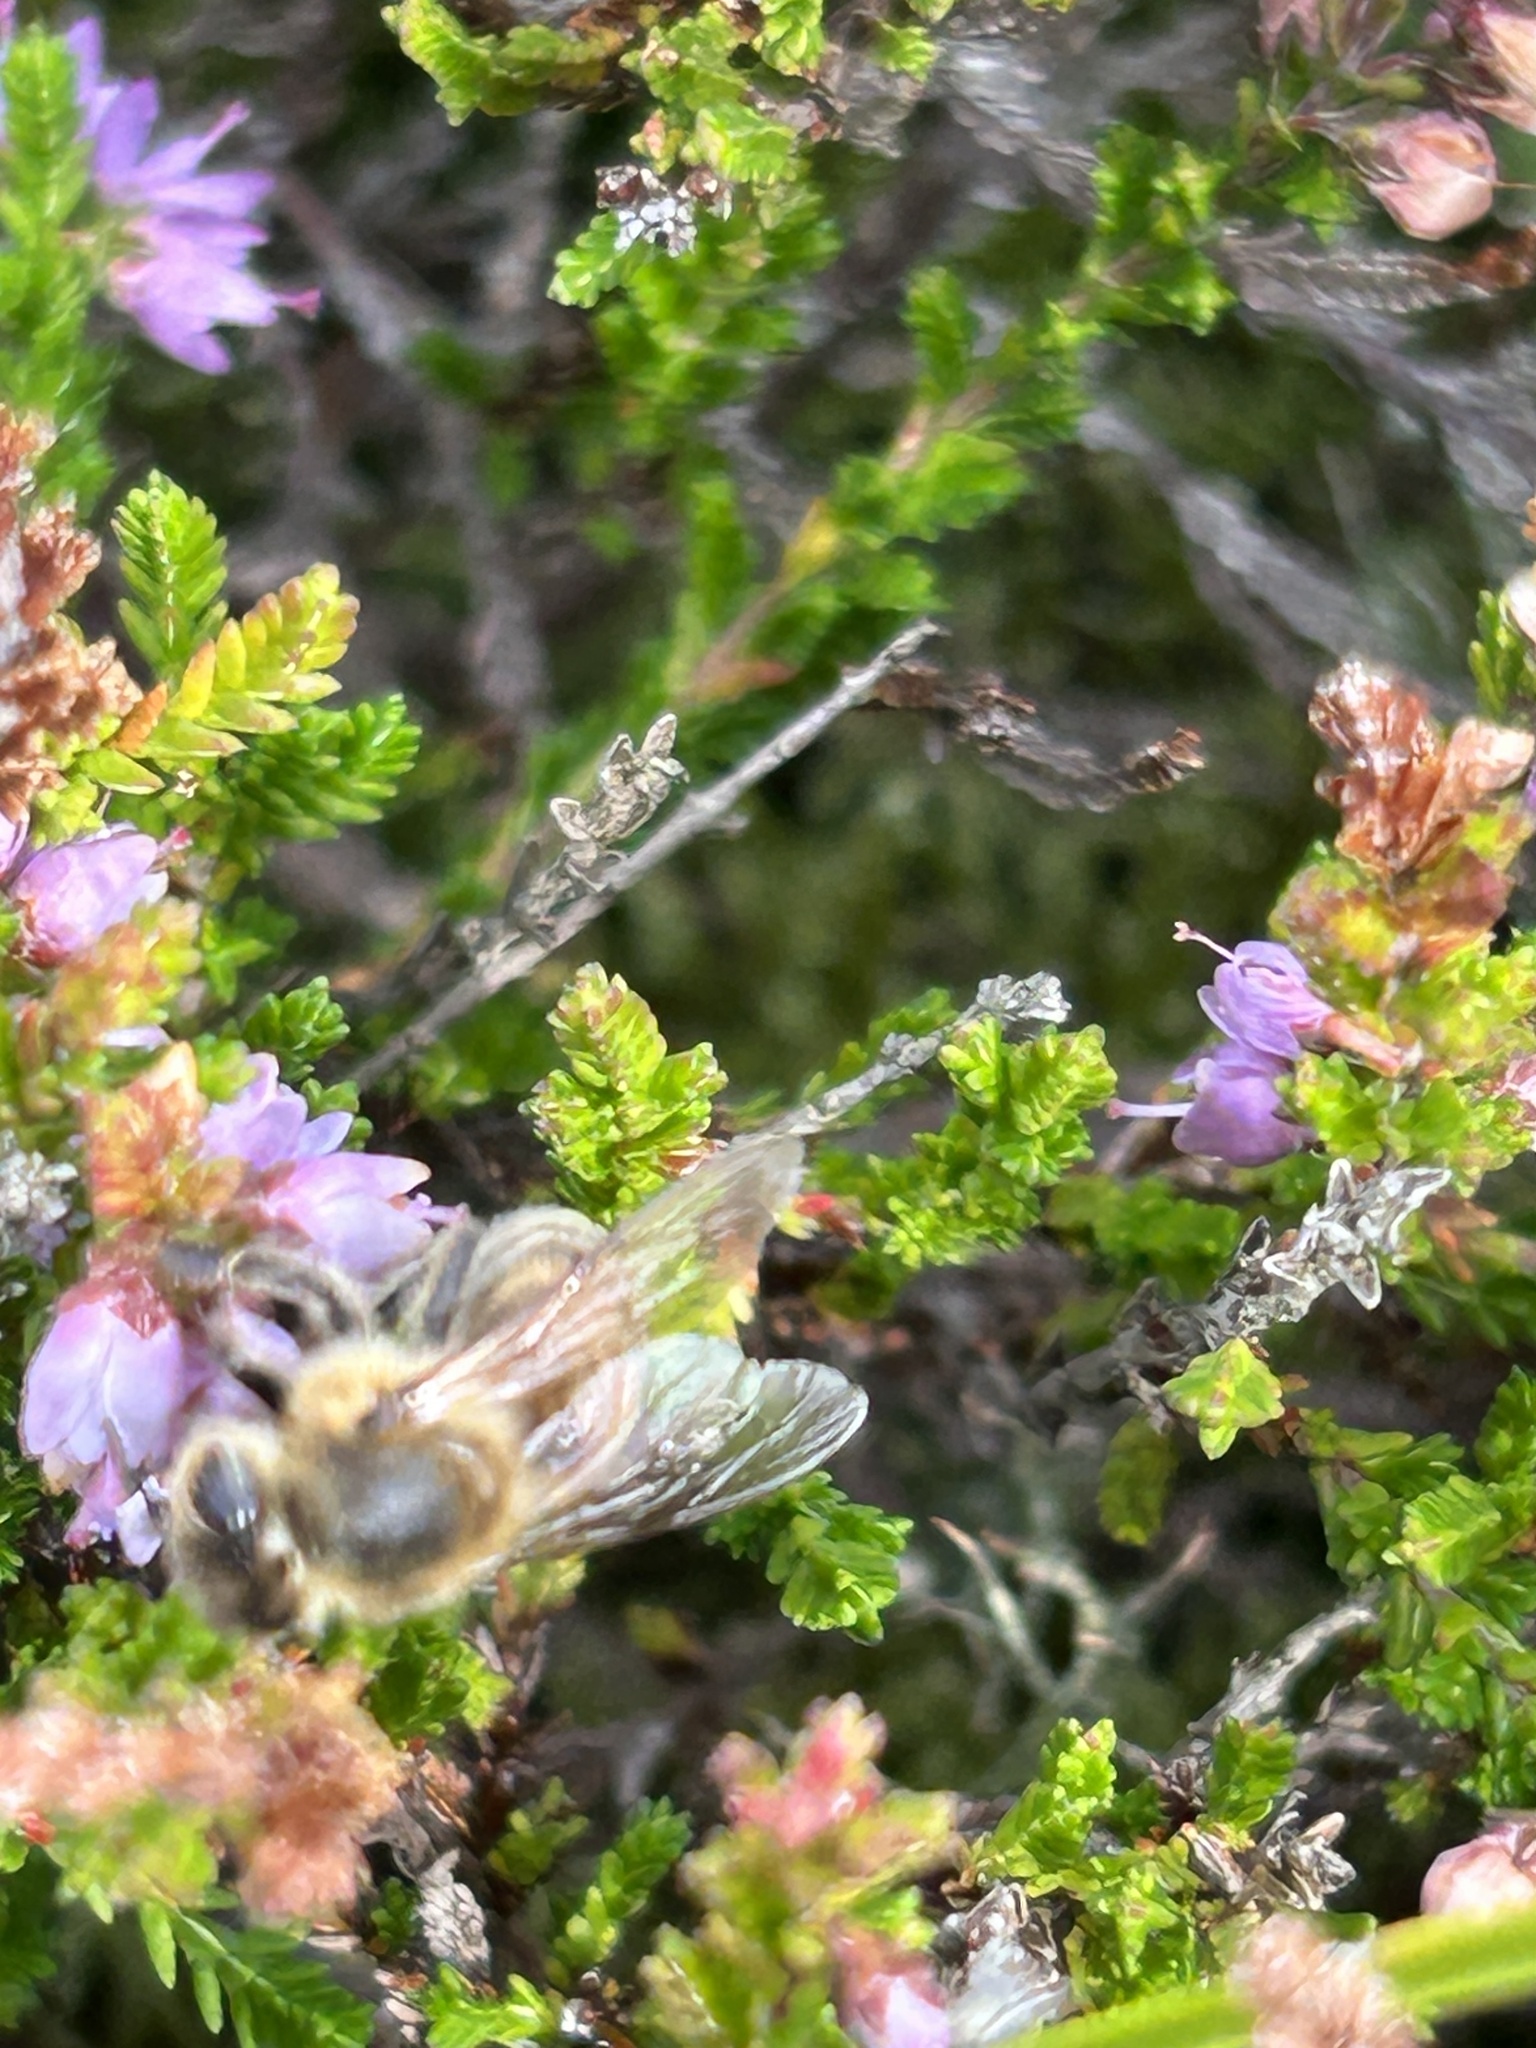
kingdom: Animalia
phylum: Arthropoda
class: Insecta
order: Hymenoptera
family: Apidae
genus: Apis
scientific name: Apis mellifera
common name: Honey bee
